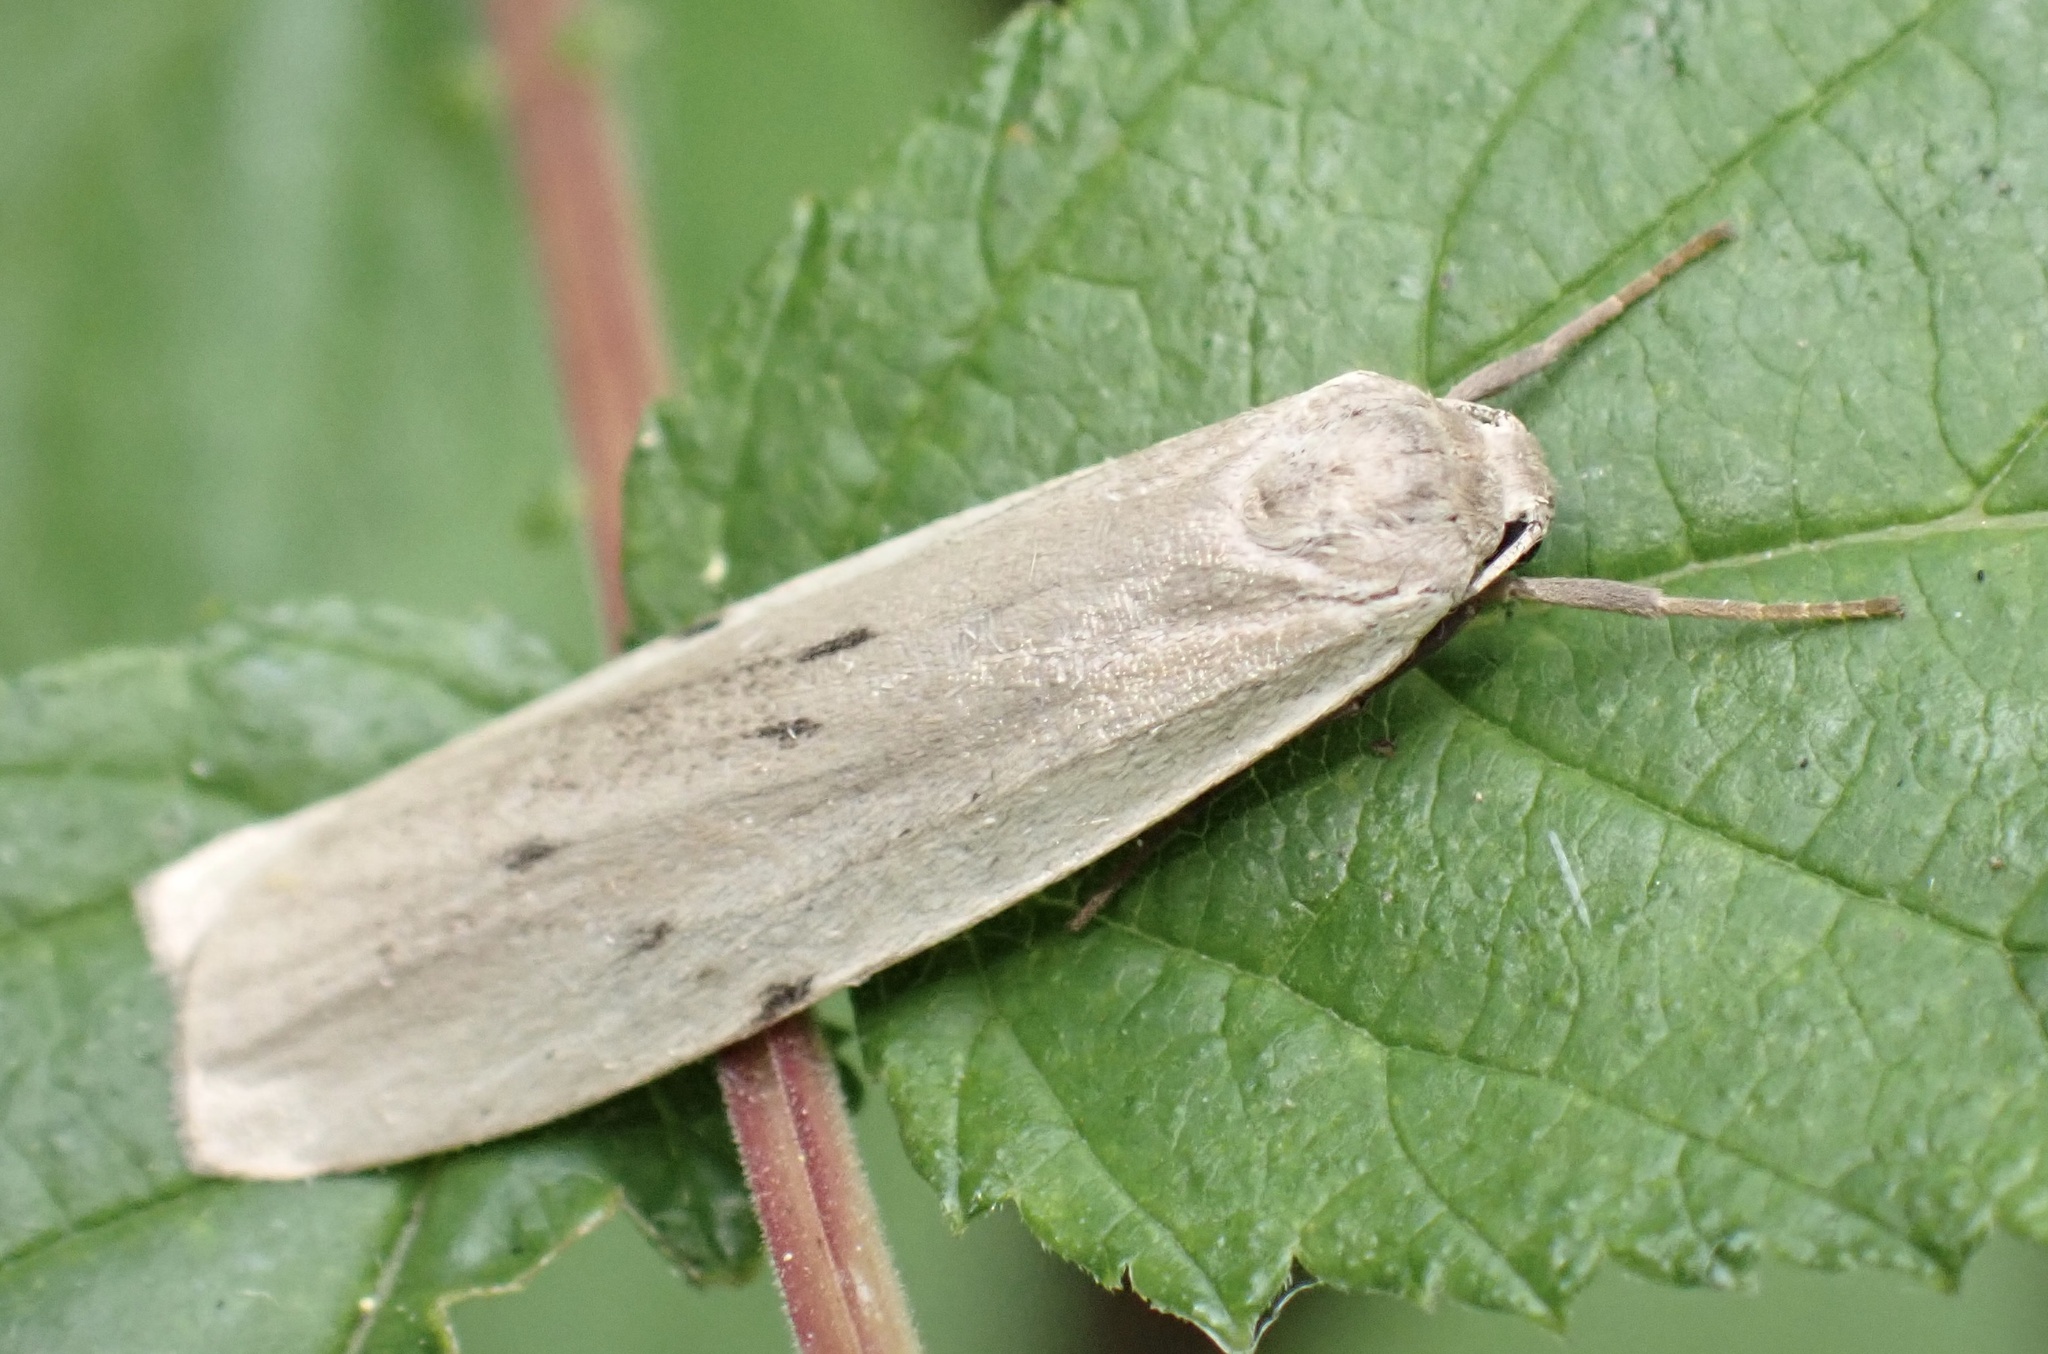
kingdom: Animalia
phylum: Arthropoda
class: Insecta
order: Lepidoptera
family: Erebidae
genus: Pelosia
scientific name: Pelosia muscerda
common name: Dotted footman
